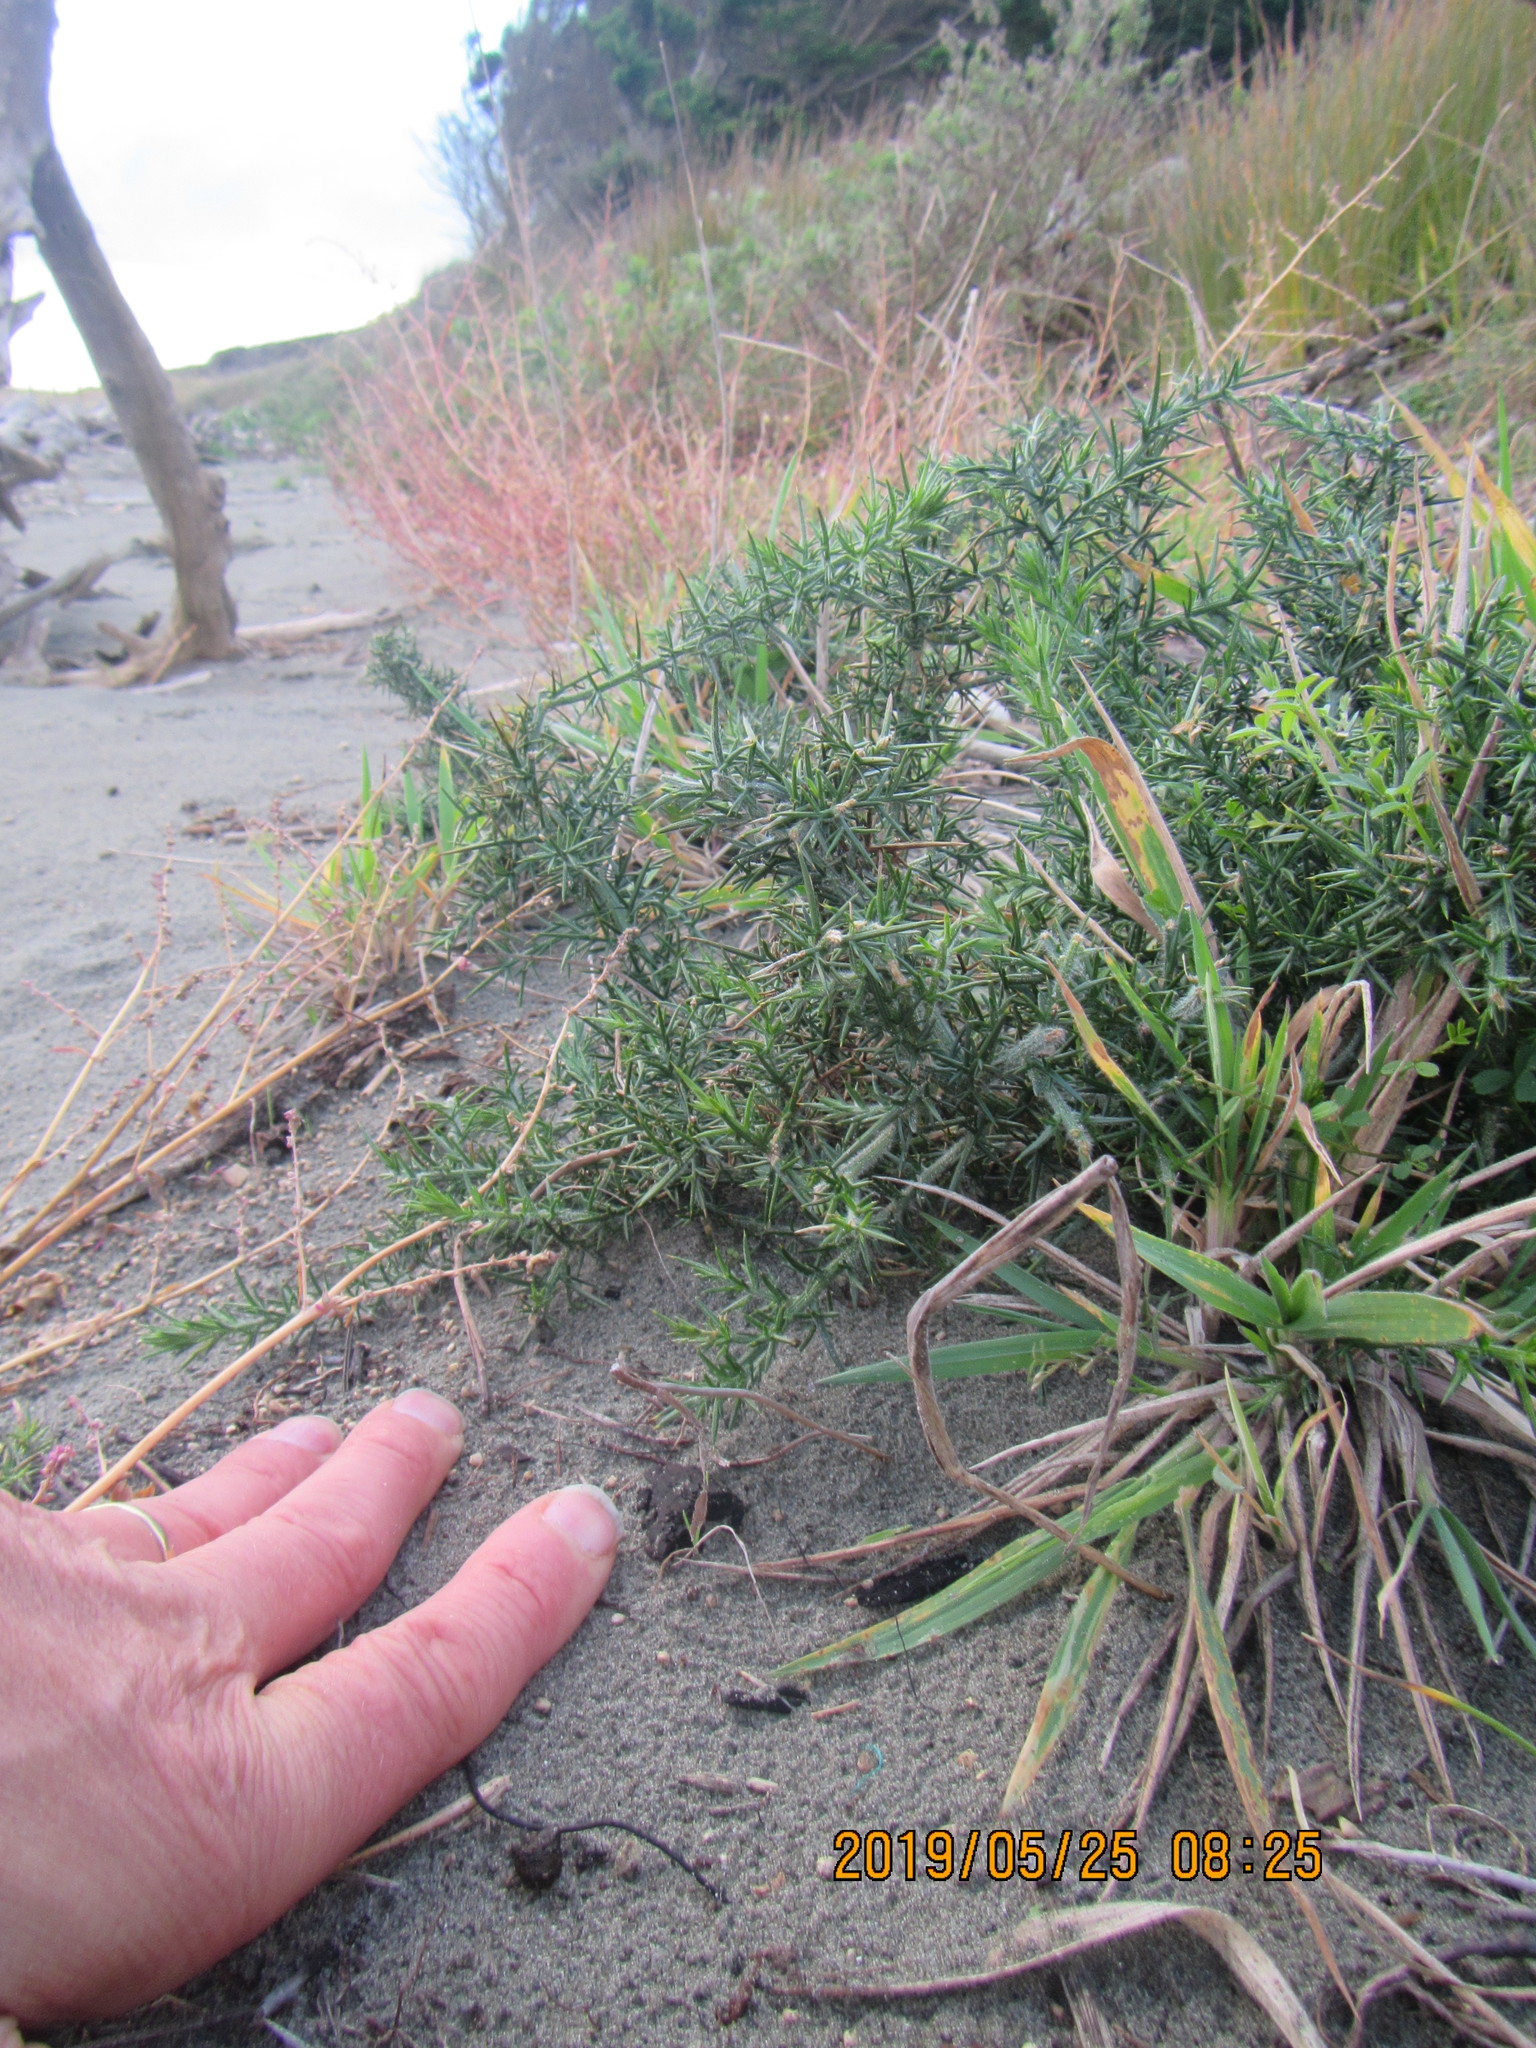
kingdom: Plantae
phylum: Tracheophyta
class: Magnoliopsida
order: Fabales
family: Fabaceae
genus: Ulex
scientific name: Ulex europaeus
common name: Common gorse
